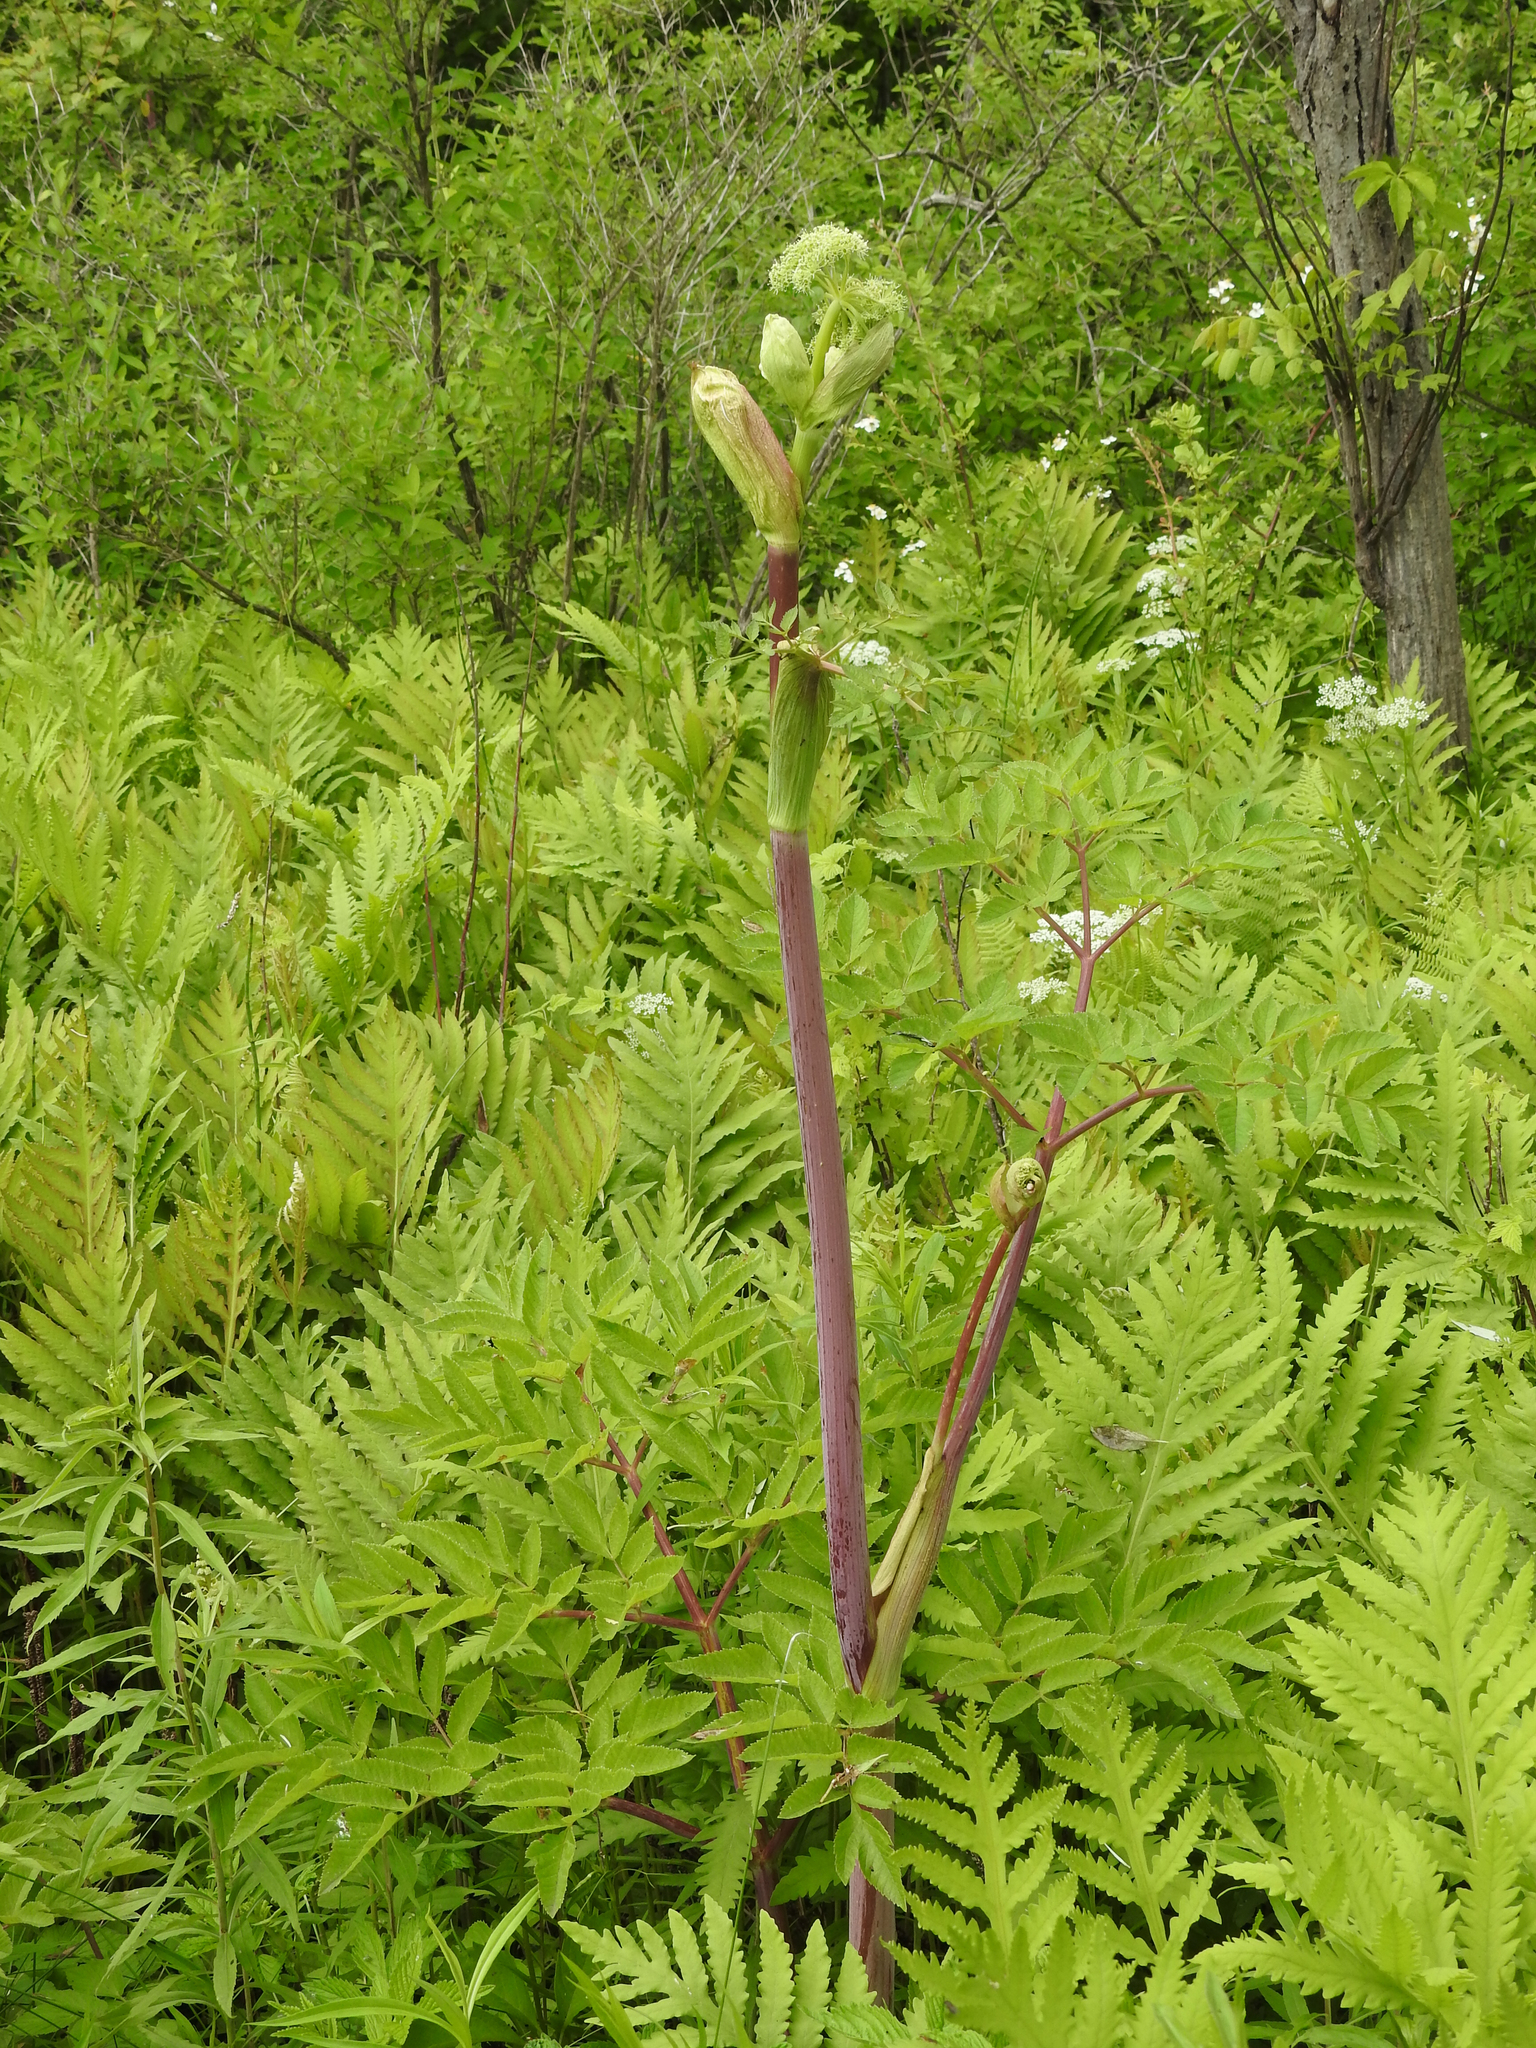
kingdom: Plantae
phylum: Tracheophyta
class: Magnoliopsida
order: Apiales
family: Apiaceae
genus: Angelica
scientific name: Angelica atropurpurea
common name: Great angelica
